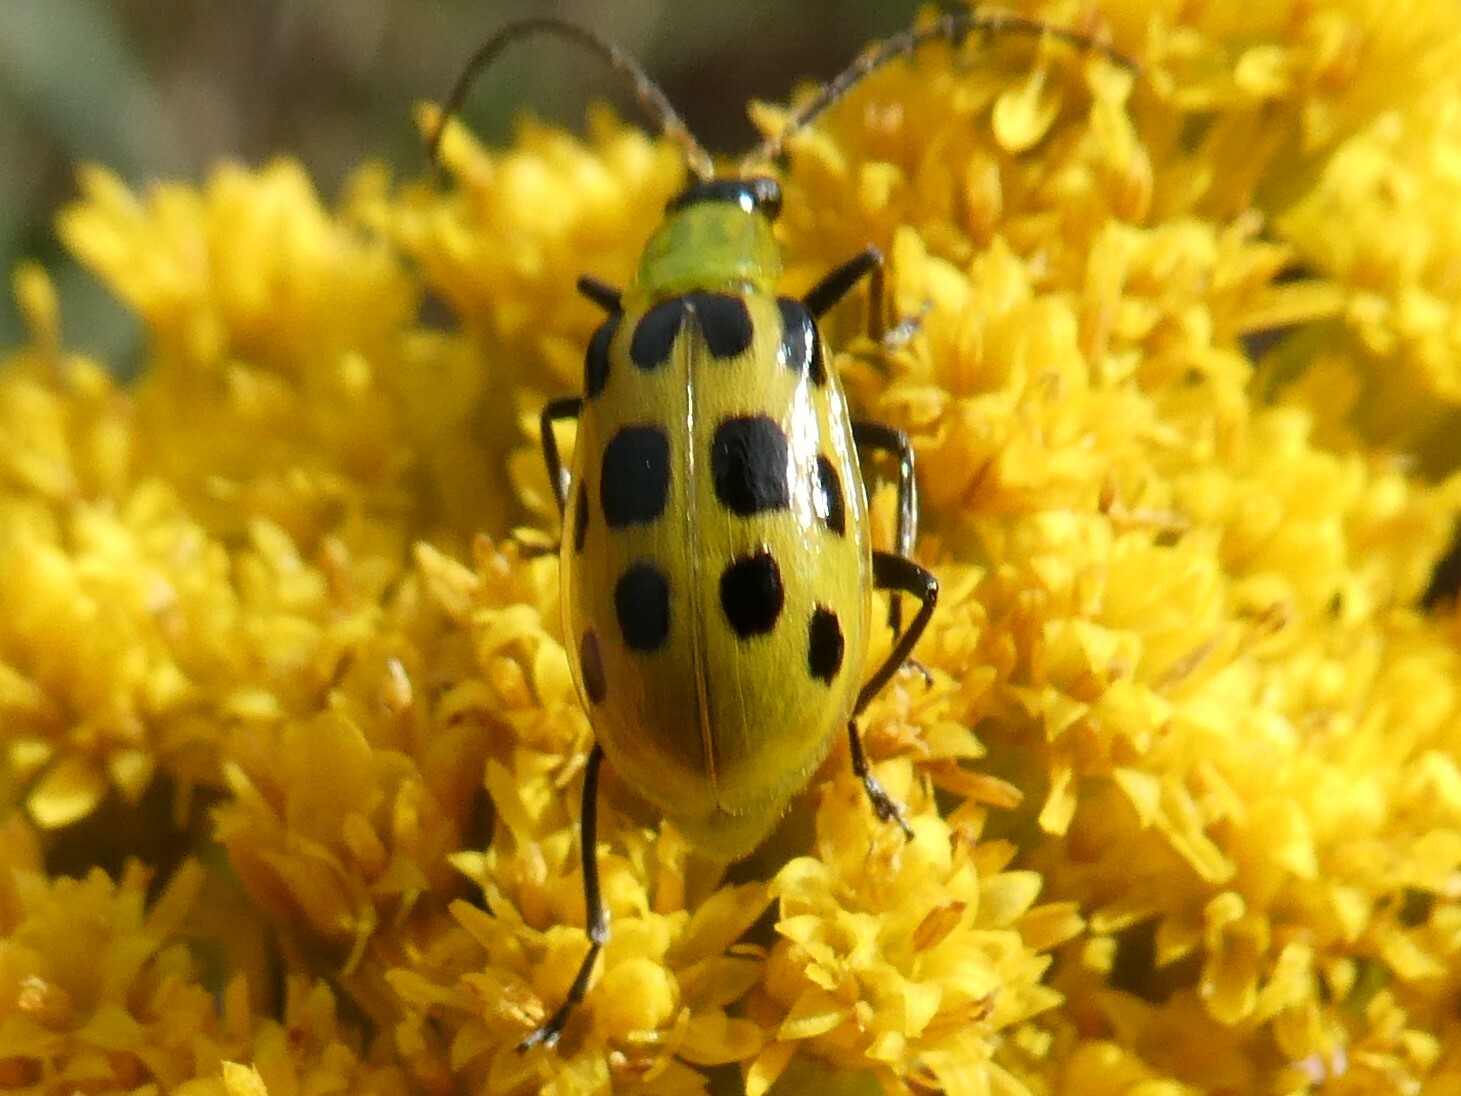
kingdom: Animalia
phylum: Arthropoda
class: Insecta
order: Coleoptera
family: Chrysomelidae
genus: Diabrotica
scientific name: Diabrotica undecimpunctata
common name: Spotted cucumber beetle
